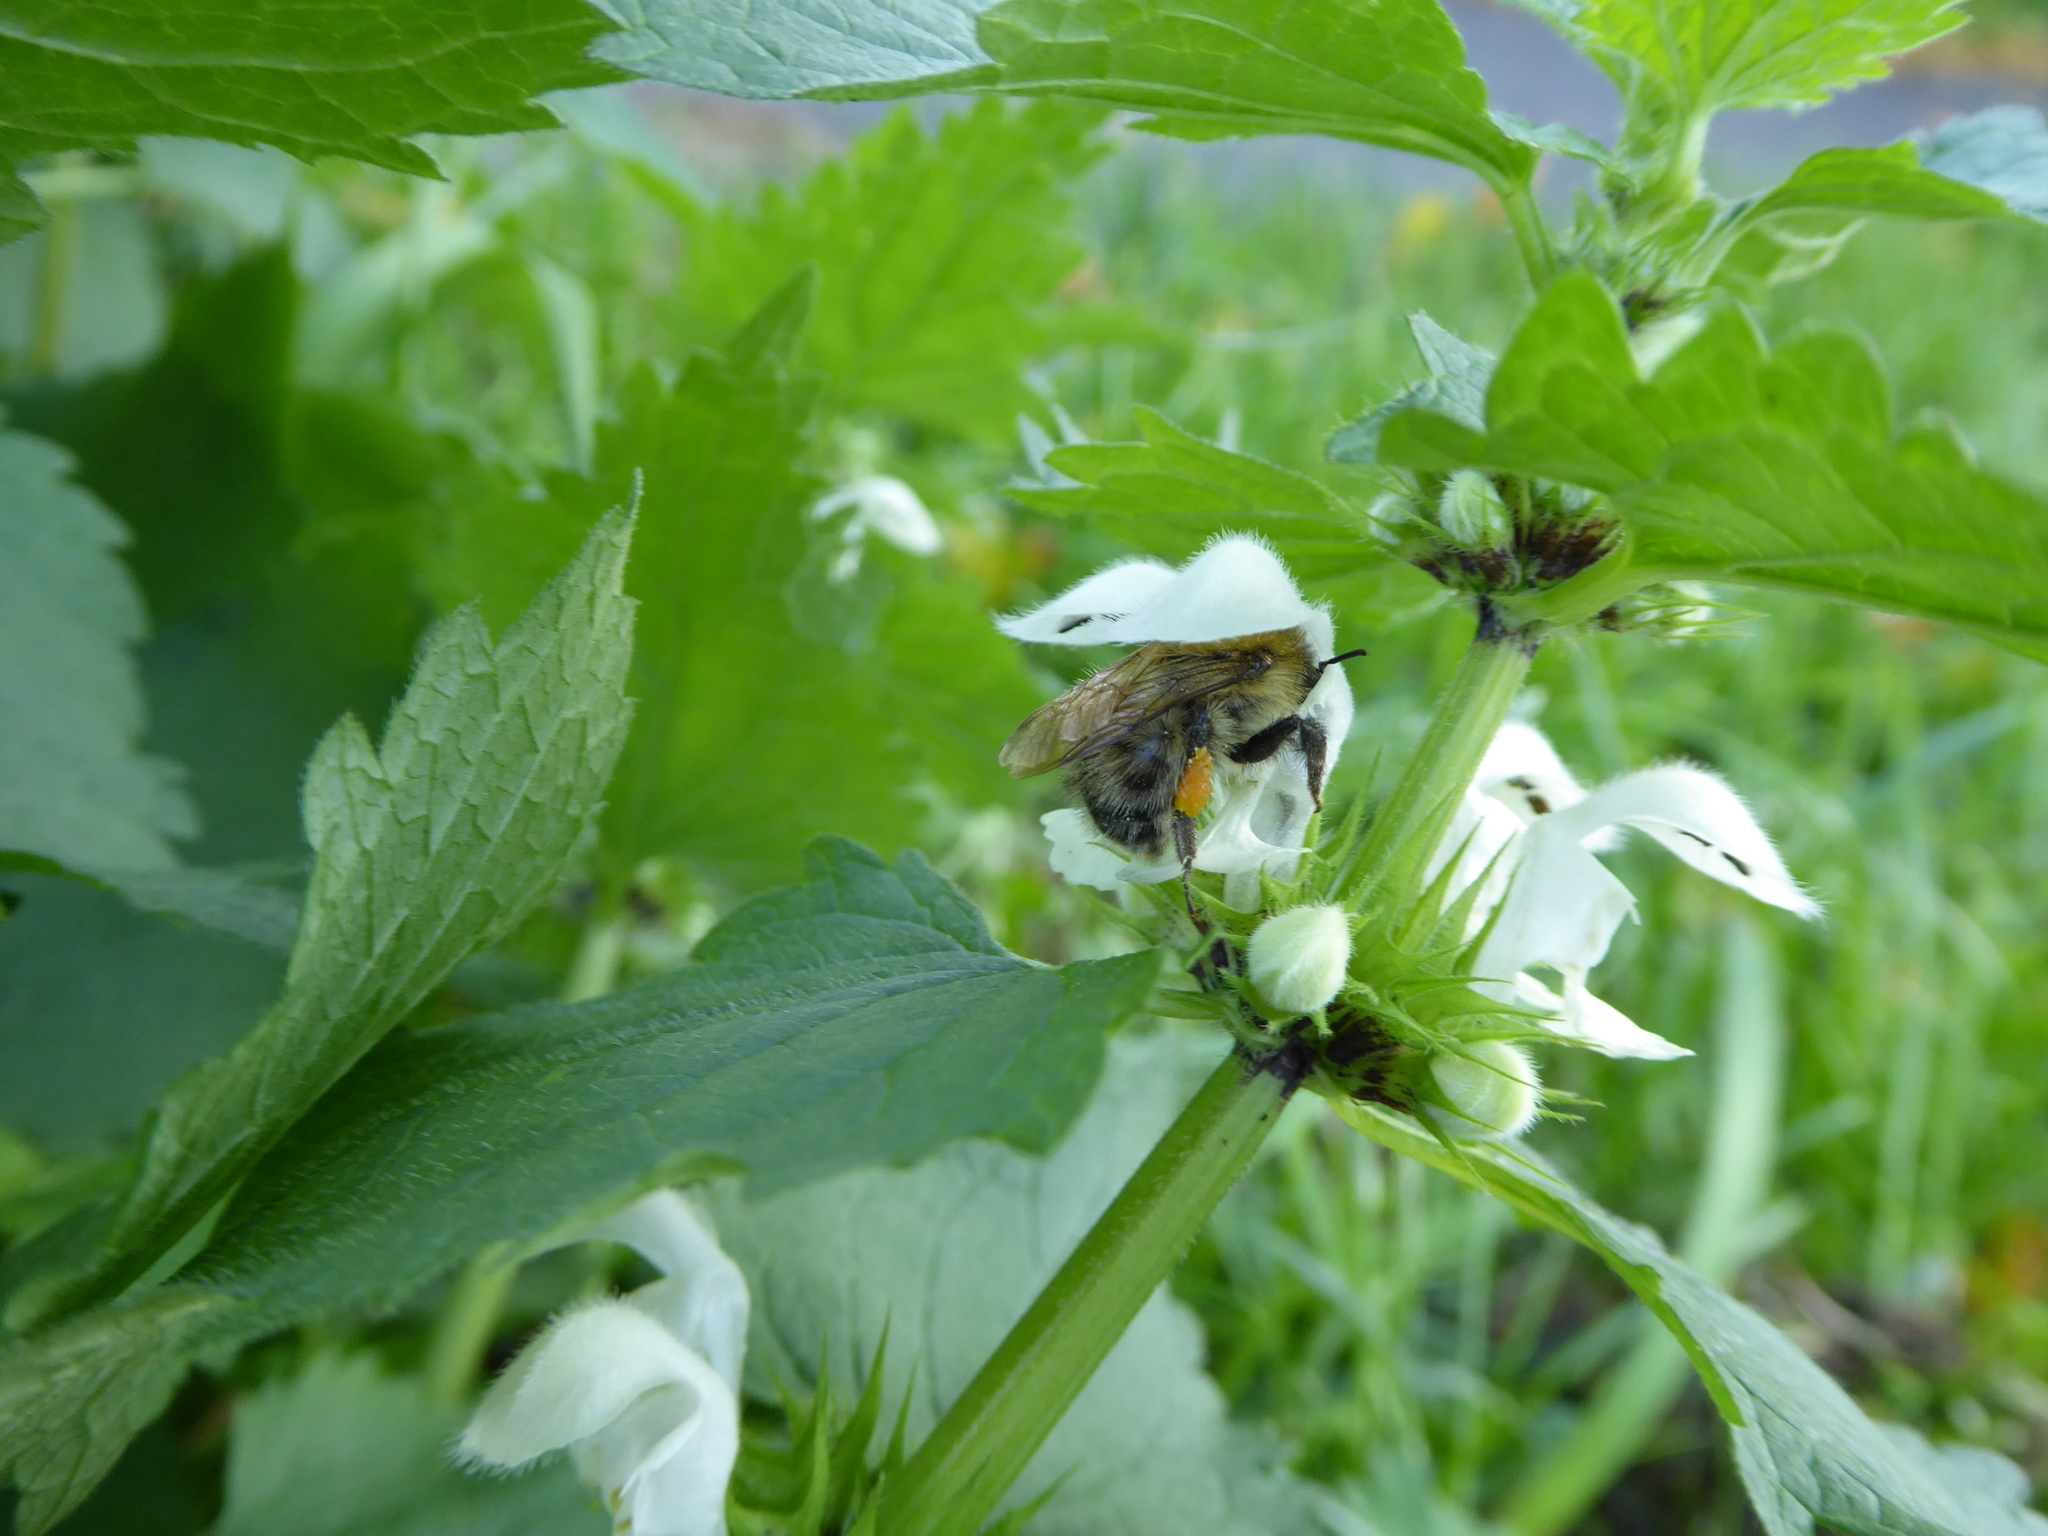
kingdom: Animalia
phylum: Arthropoda
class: Insecta
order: Hymenoptera
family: Apidae
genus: Bombus
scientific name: Bombus pascuorum
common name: Common carder bee
